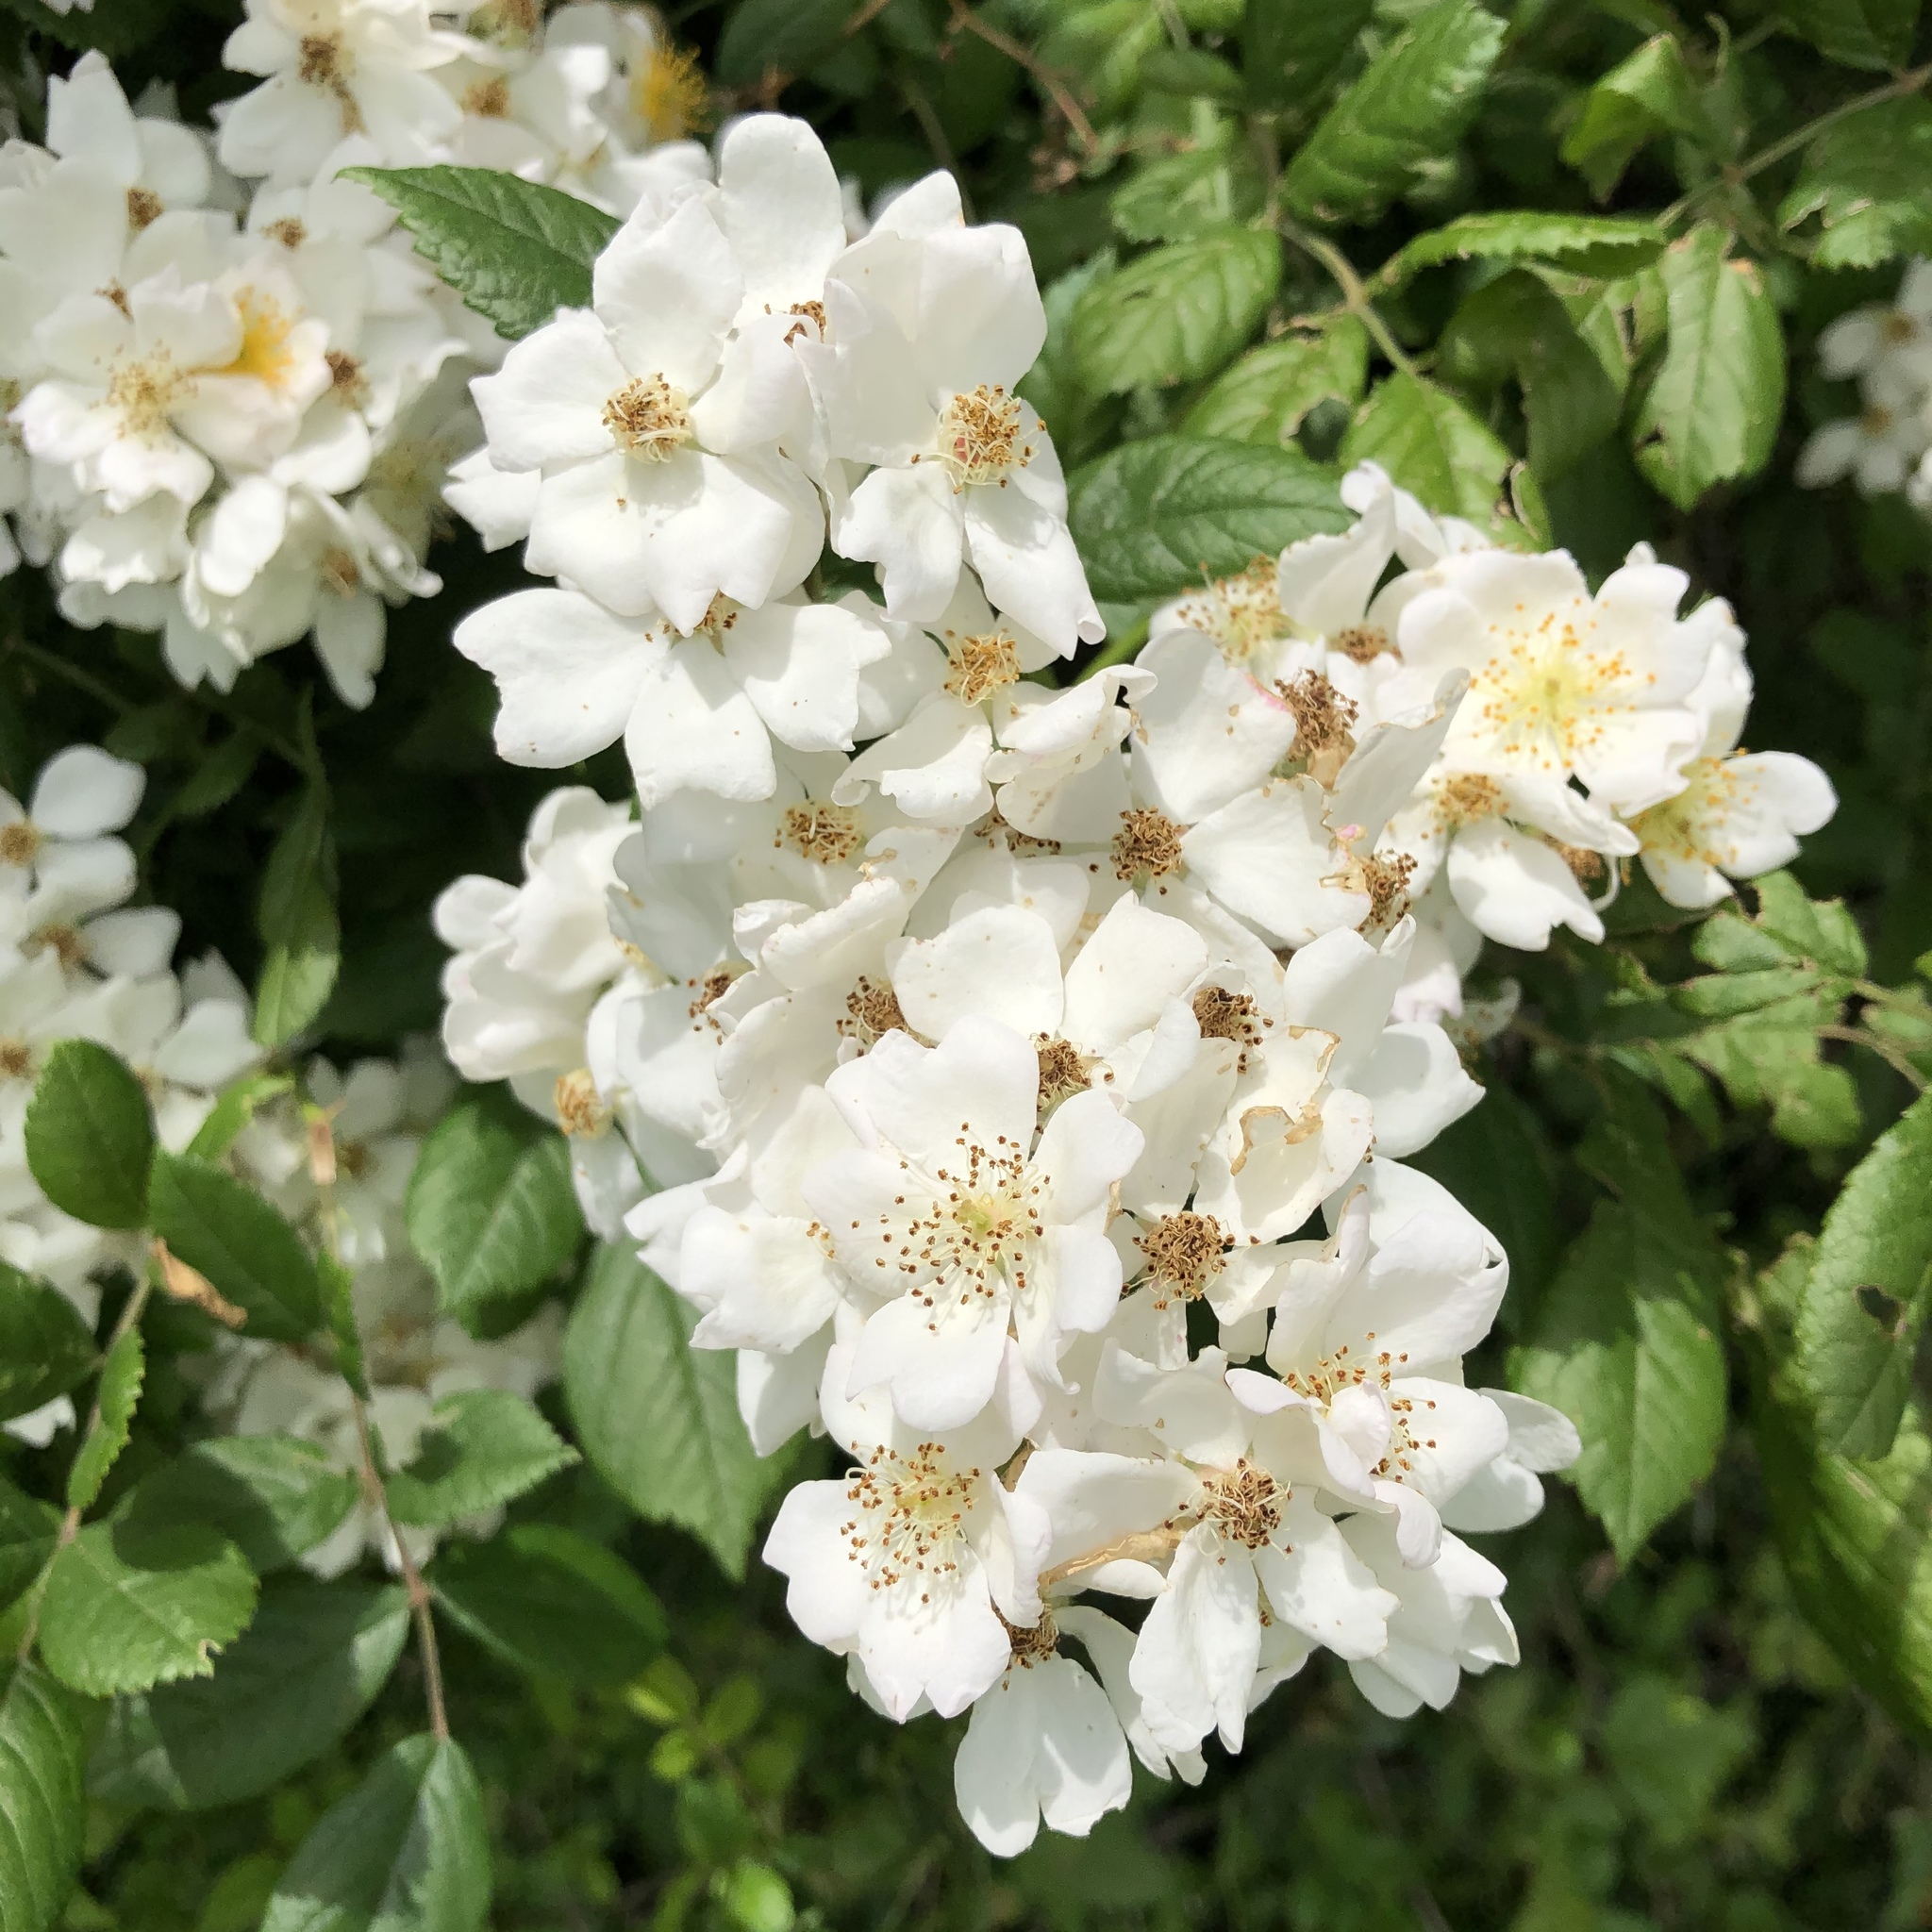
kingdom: Plantae
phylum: Tracheophyta
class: Magnoliopsida
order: Rosales
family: Rosaceae
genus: Rosa
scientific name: Rosa multiflora
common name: Multiflora rose
